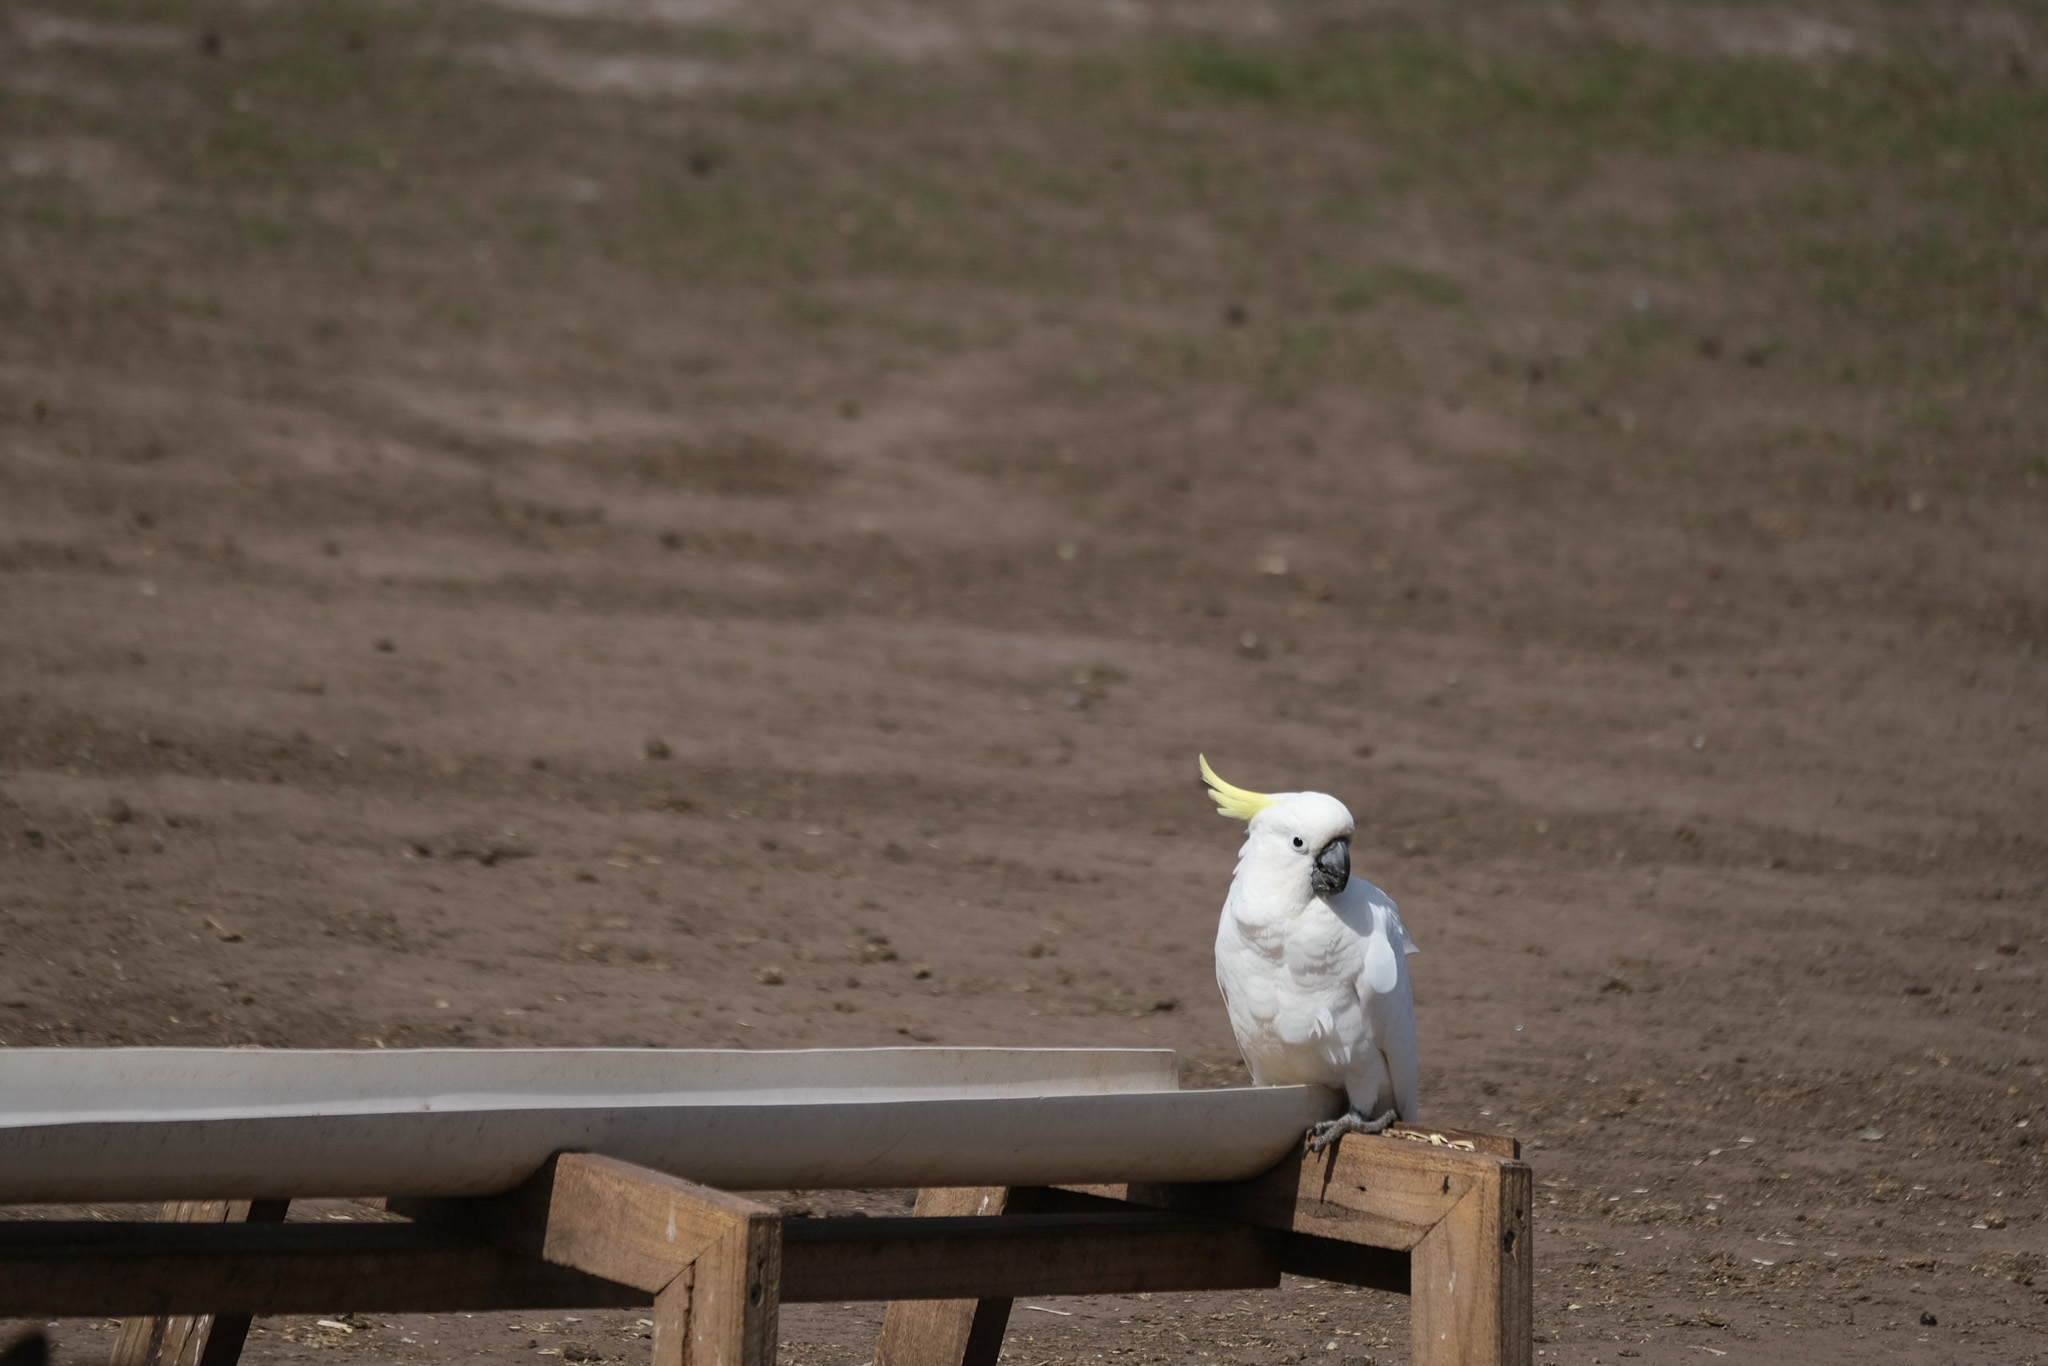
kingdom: Animalia
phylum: Chordata
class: Aves
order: Psittaciformes
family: Psittacidae
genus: Cacatua
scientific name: Cacatua galerita
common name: Sulphur-crested cockatoo
